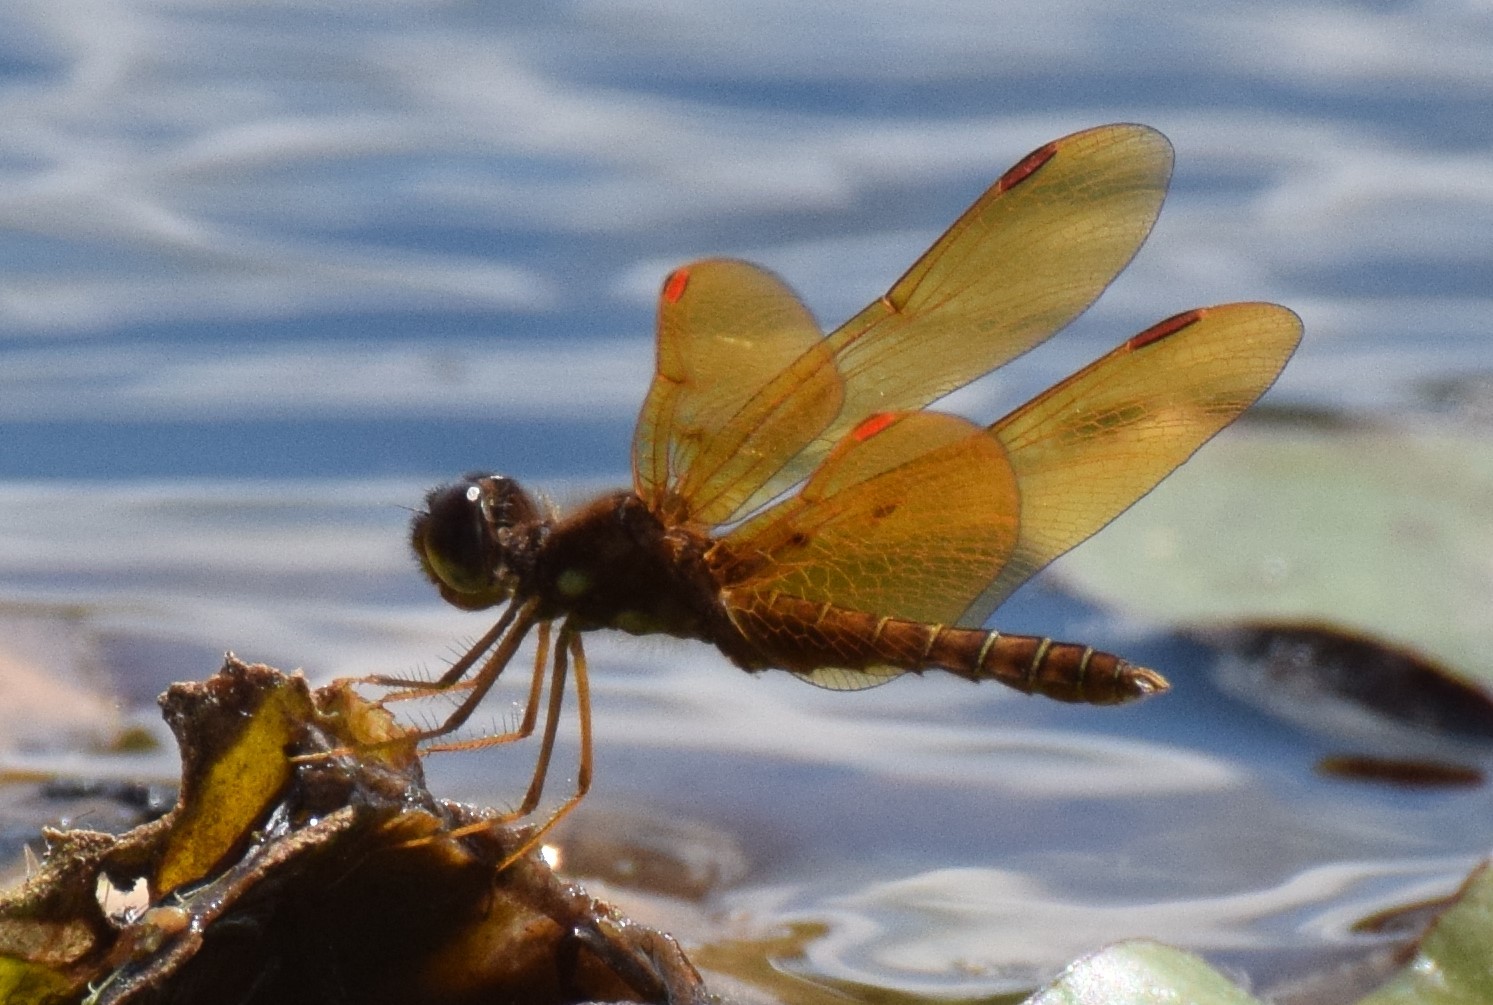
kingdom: Animalia
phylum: Arthropoda
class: Insecta
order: Odonata
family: Libellulidae
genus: Perithemis
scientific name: Perithemis tenera
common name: Eastern amberwing
